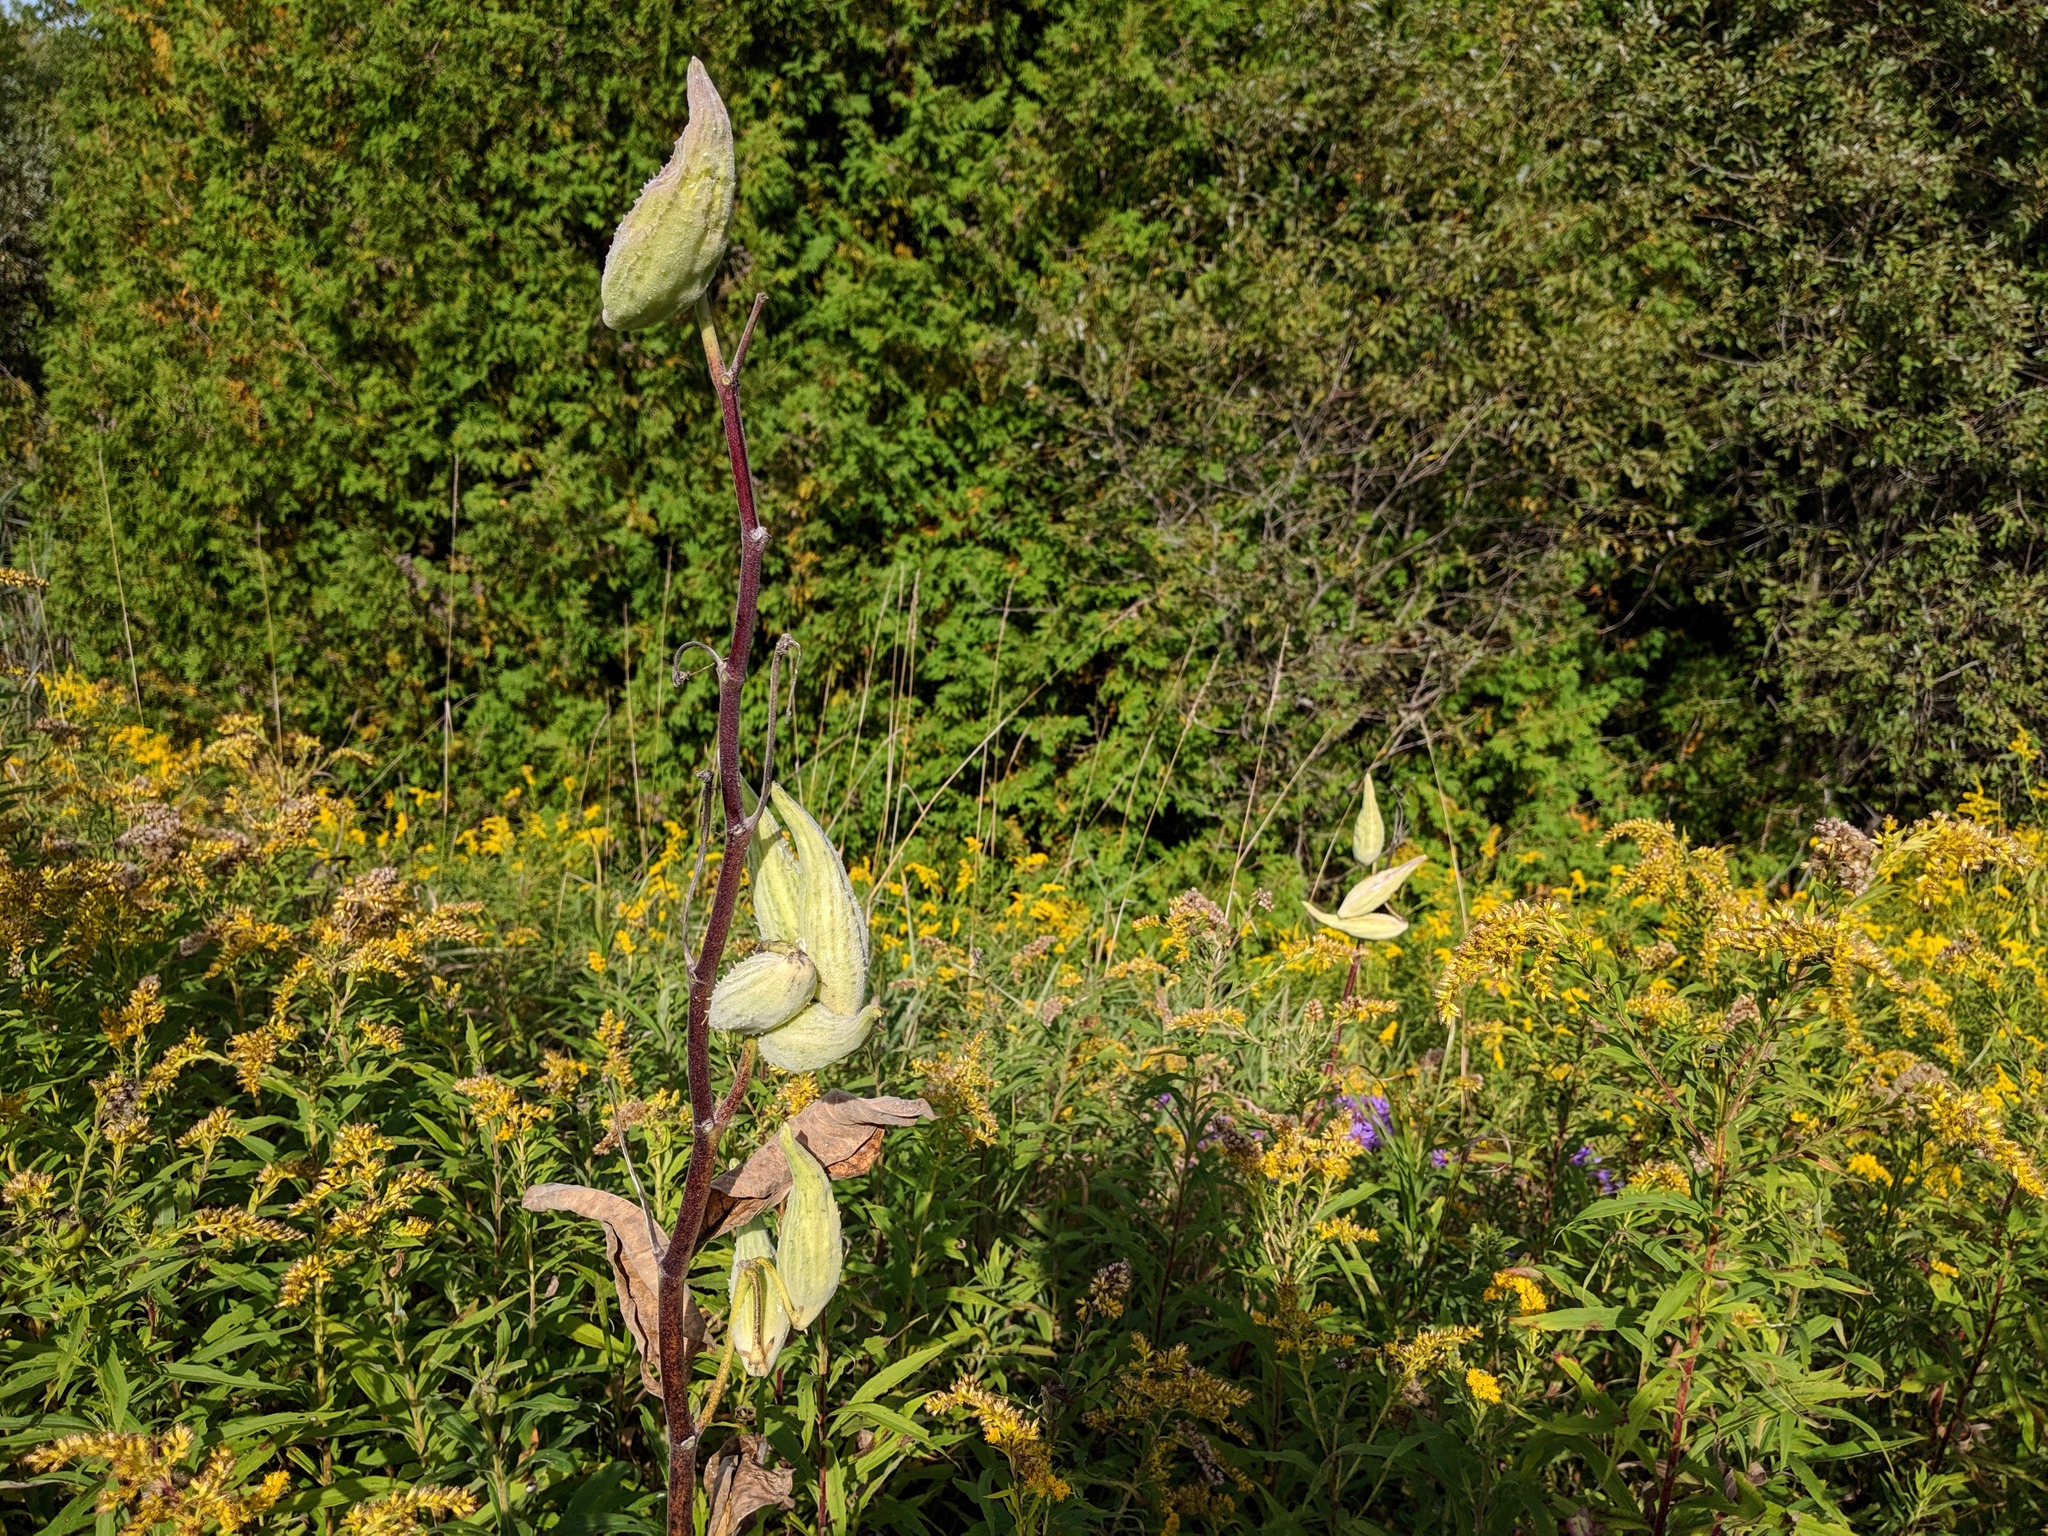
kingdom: Plantae
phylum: Tracheophyta
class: Magnoliopsida
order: Gentianales
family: Apocynaceae
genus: Asclepias
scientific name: Asclepias syriaca
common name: Common milkweed
